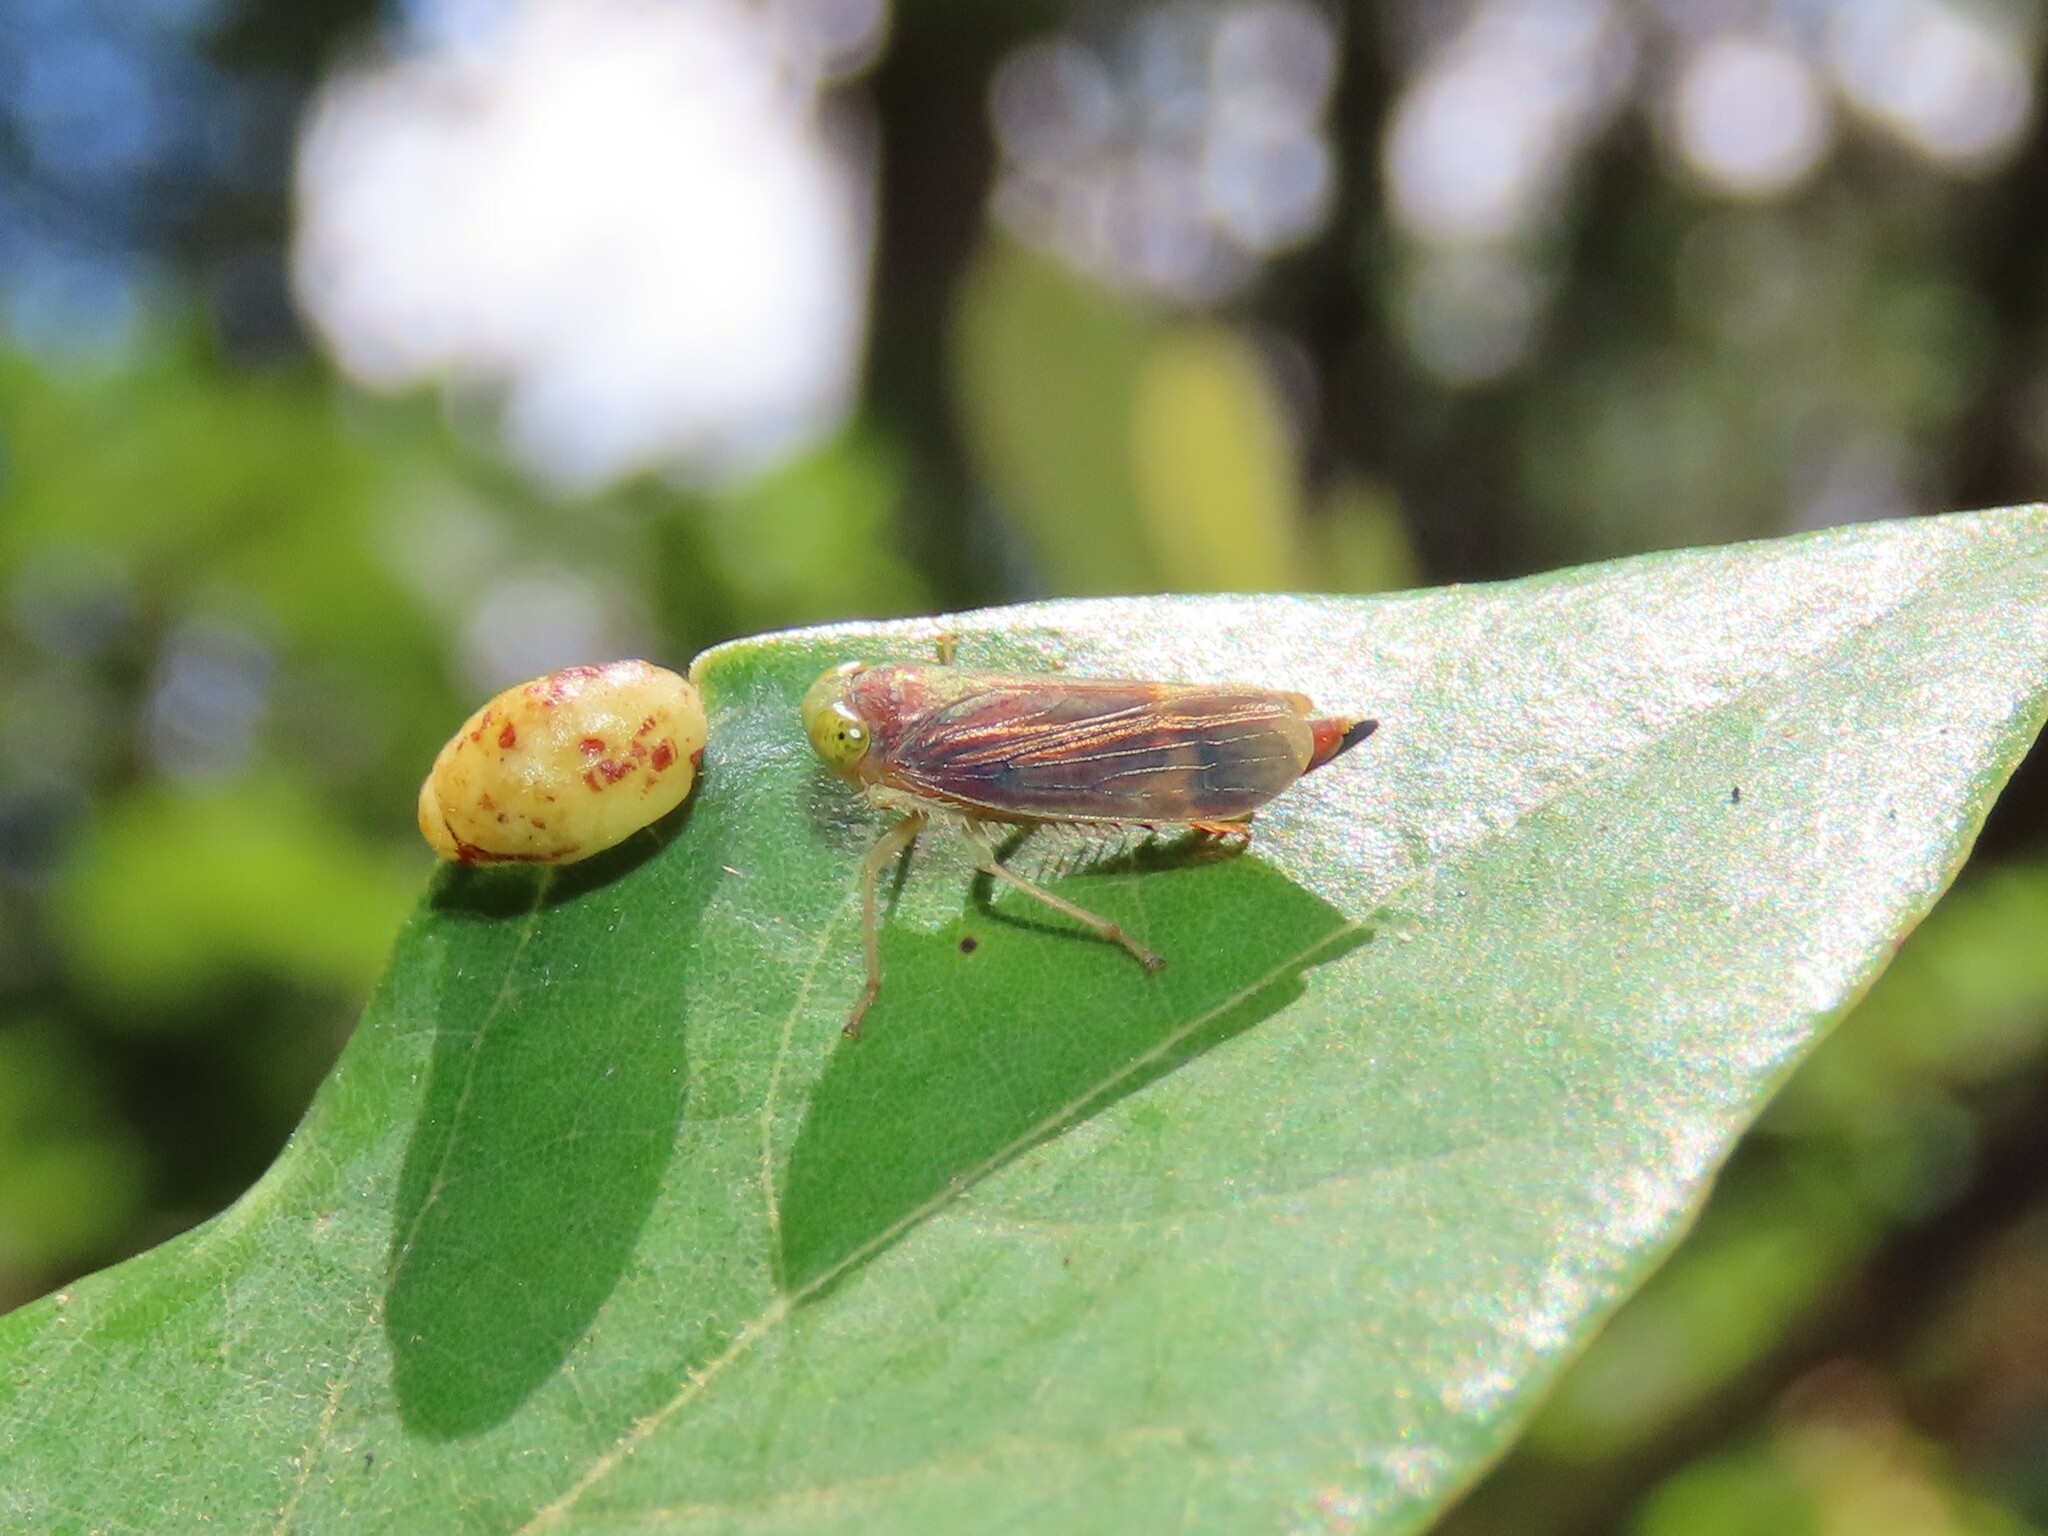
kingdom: Animalia
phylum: Arthropoda
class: Insecta
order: Hemiptera
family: Cicadellidae
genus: Jikradia
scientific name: Jikradia olitoria
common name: Coppery leafhopper
